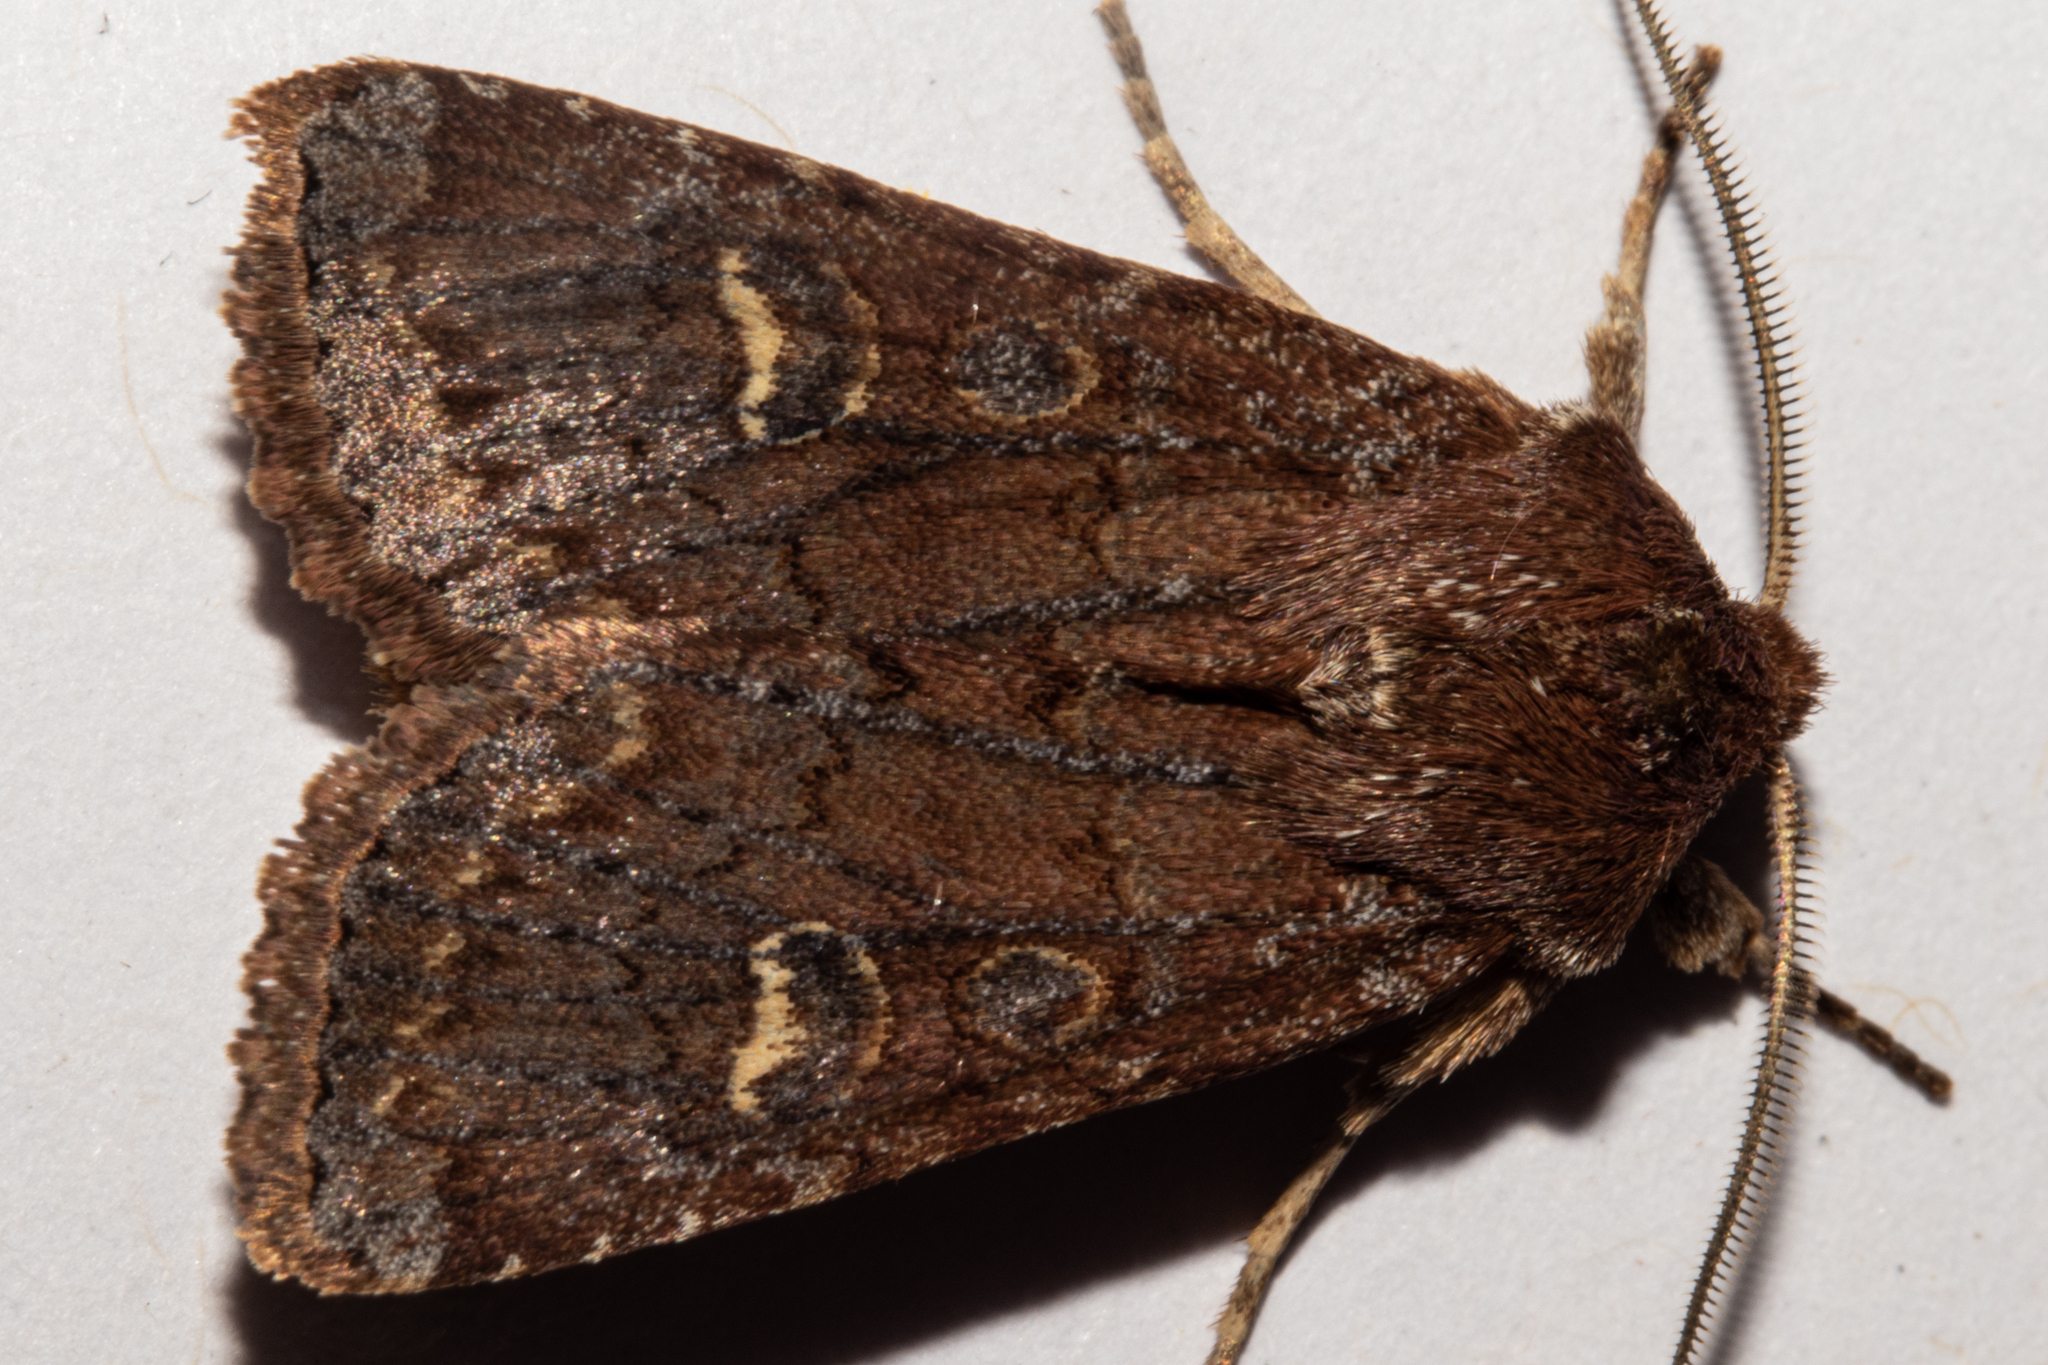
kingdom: Animalia
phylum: Arthropoda
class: Insecta
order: Lepidoptera
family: Noctuidae
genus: Ichneutica
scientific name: Ichneutica agorastis
